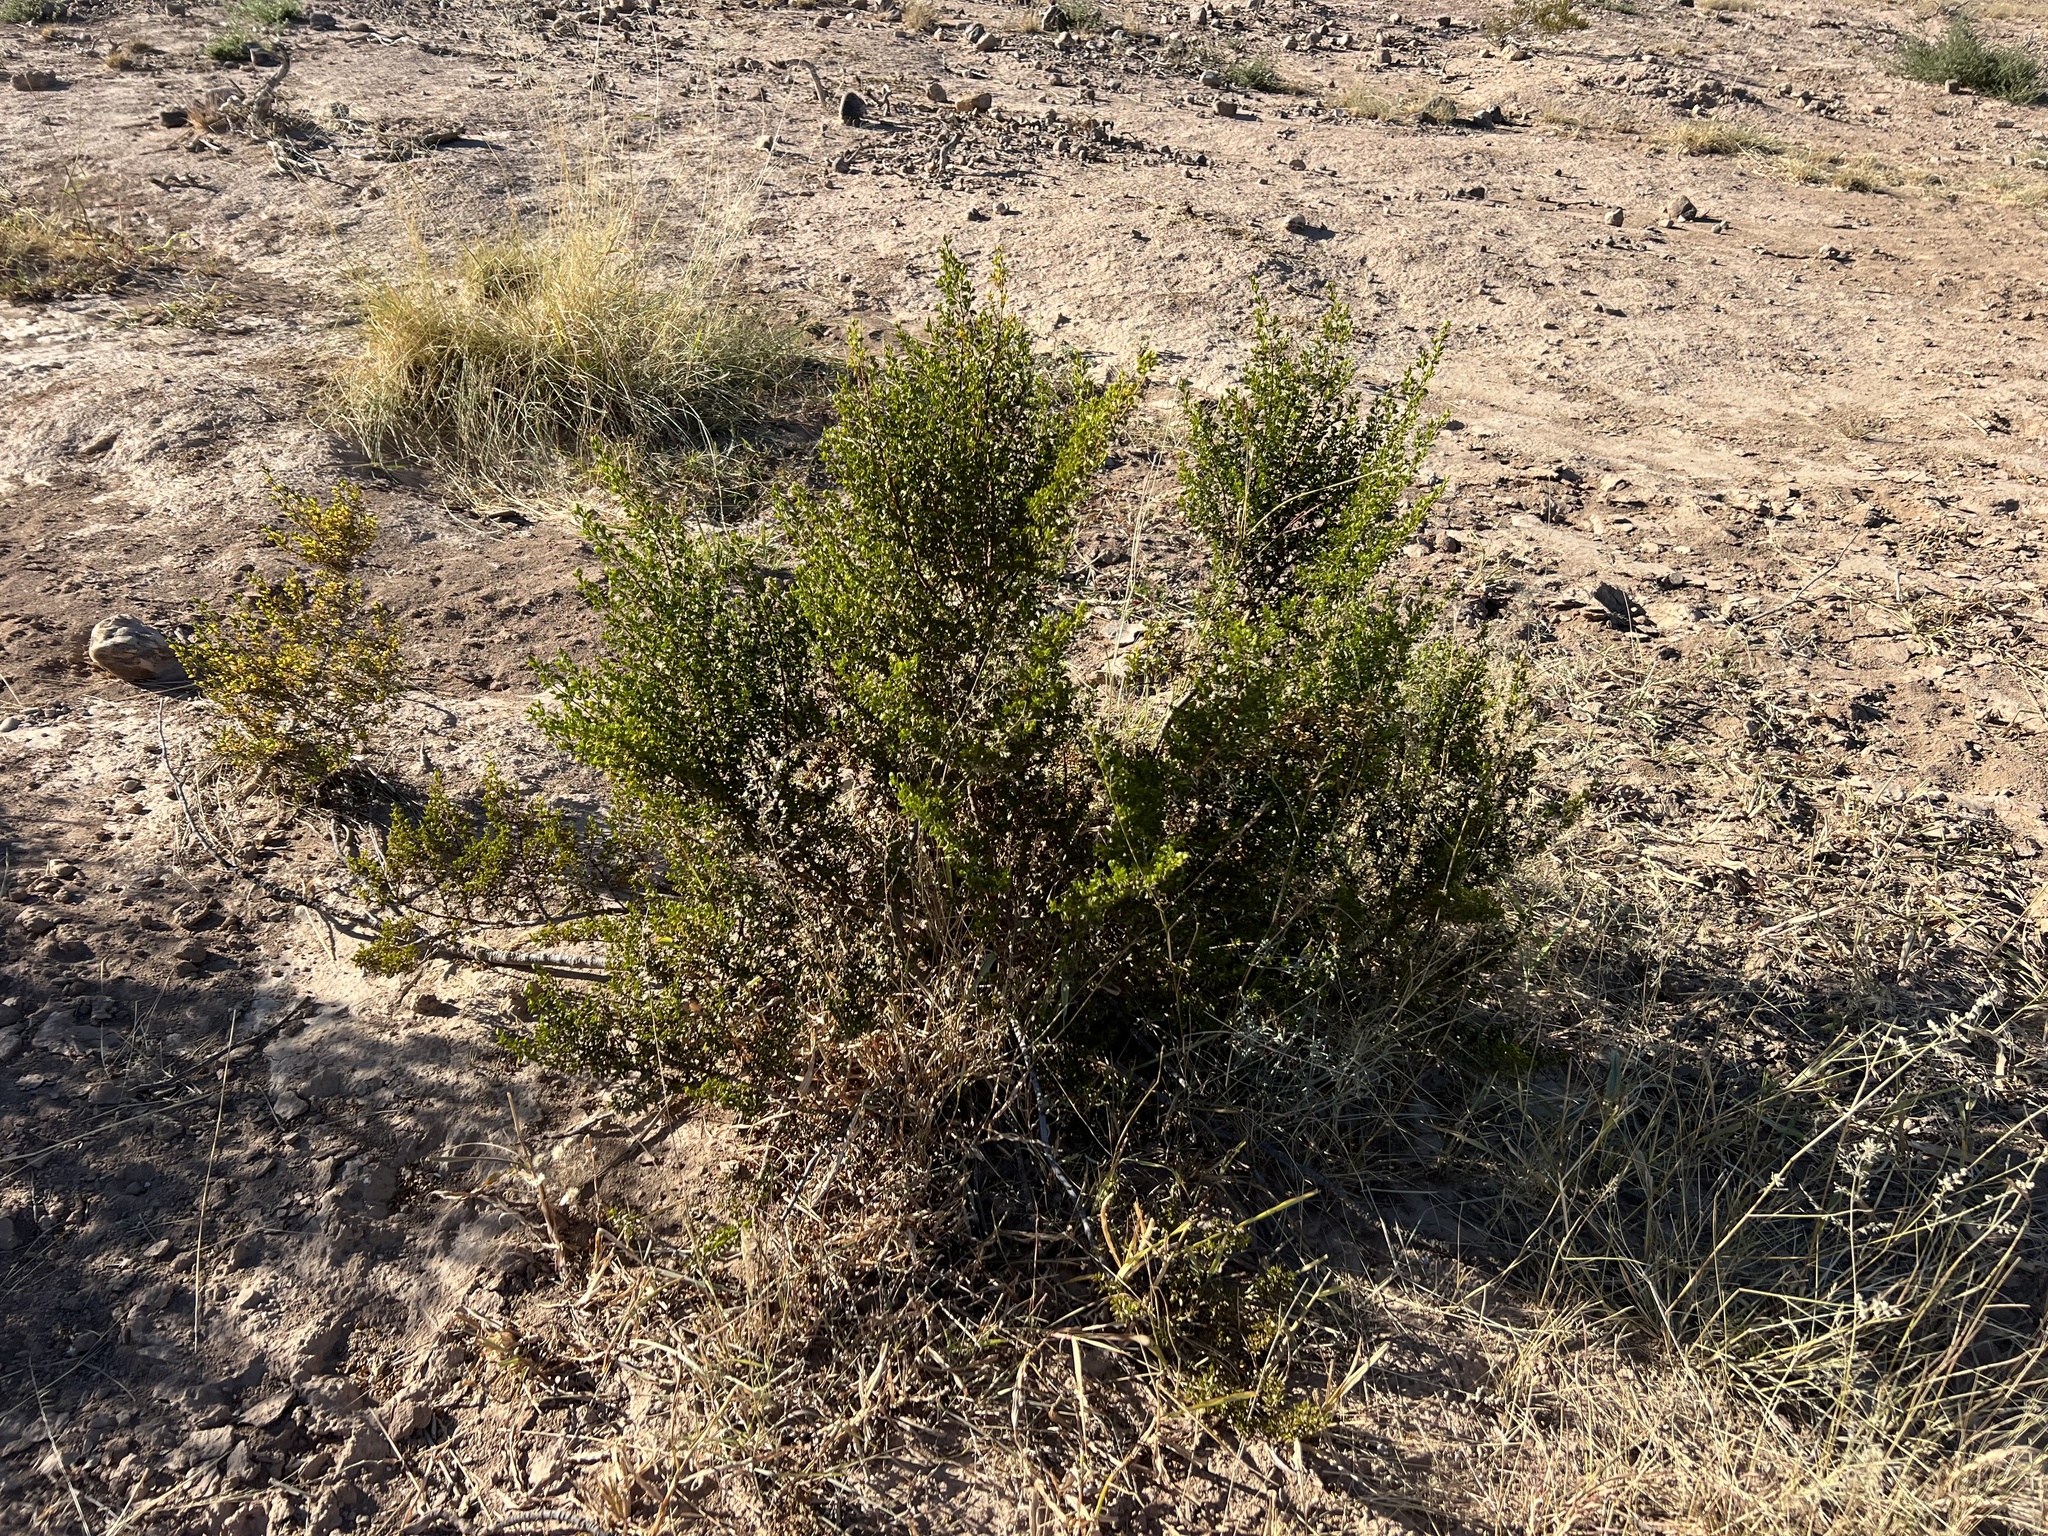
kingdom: Plantae
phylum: Tracheophyta
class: Magnoliopsida
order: Zygophyllales
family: Zygophyllaceae
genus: Larrea
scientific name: Larrea tridentata
